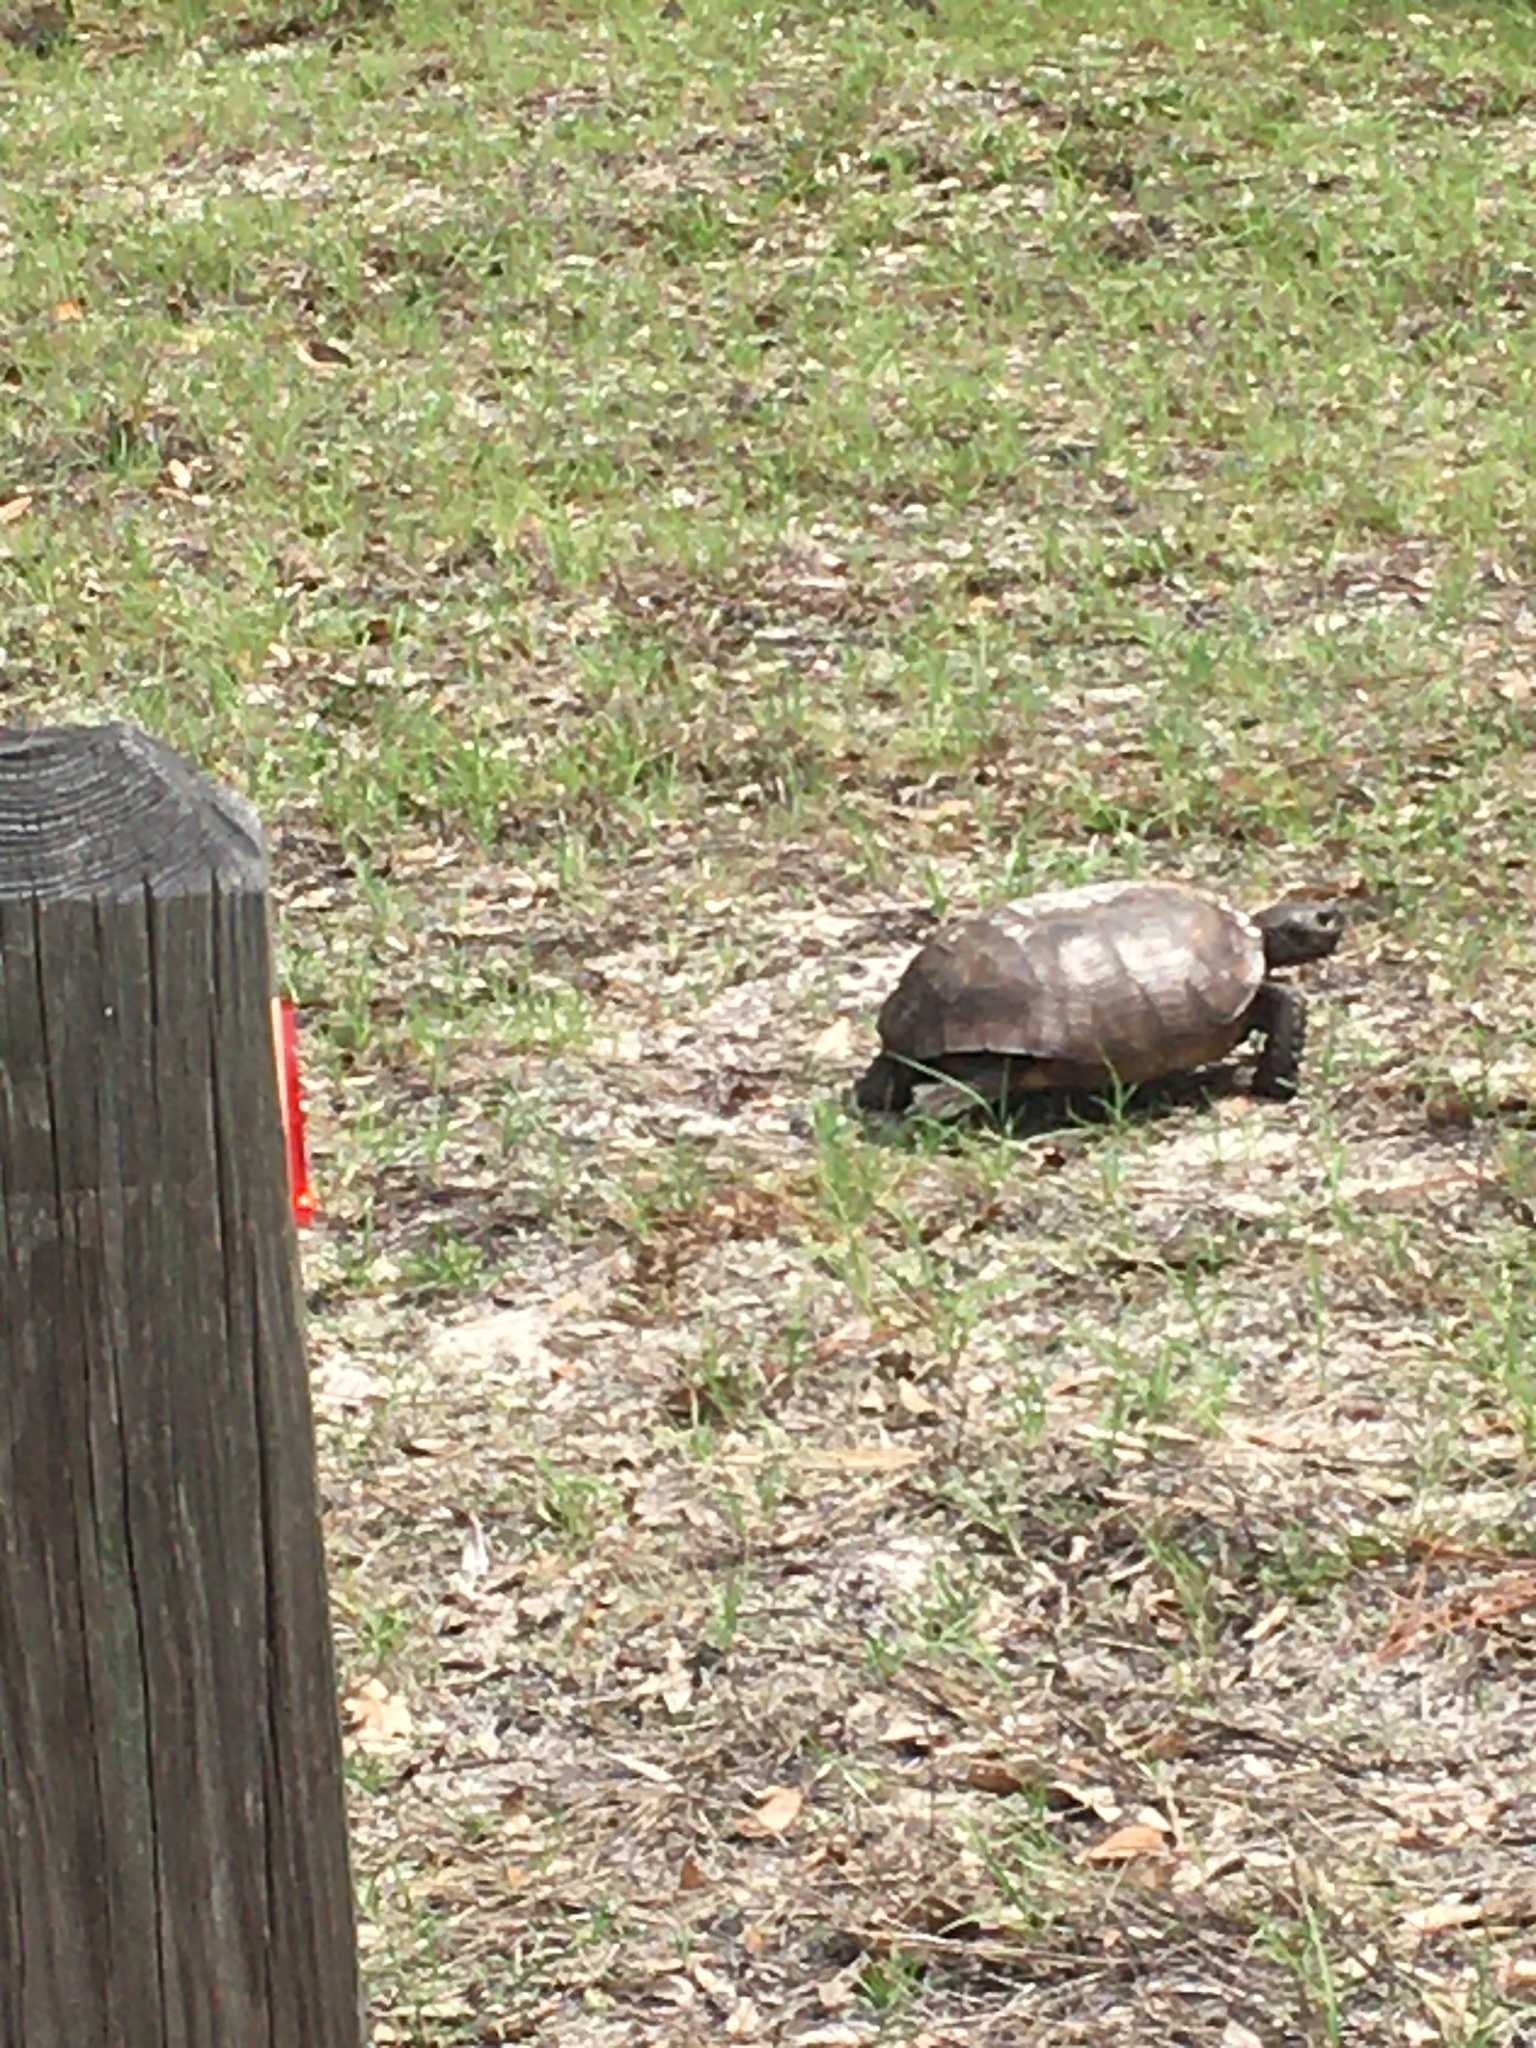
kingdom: Animalia
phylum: Chordata
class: Testudines
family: Testudinidae
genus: Gopherus
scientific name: Gopherus polyphemus
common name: Florida gopher tortoise
